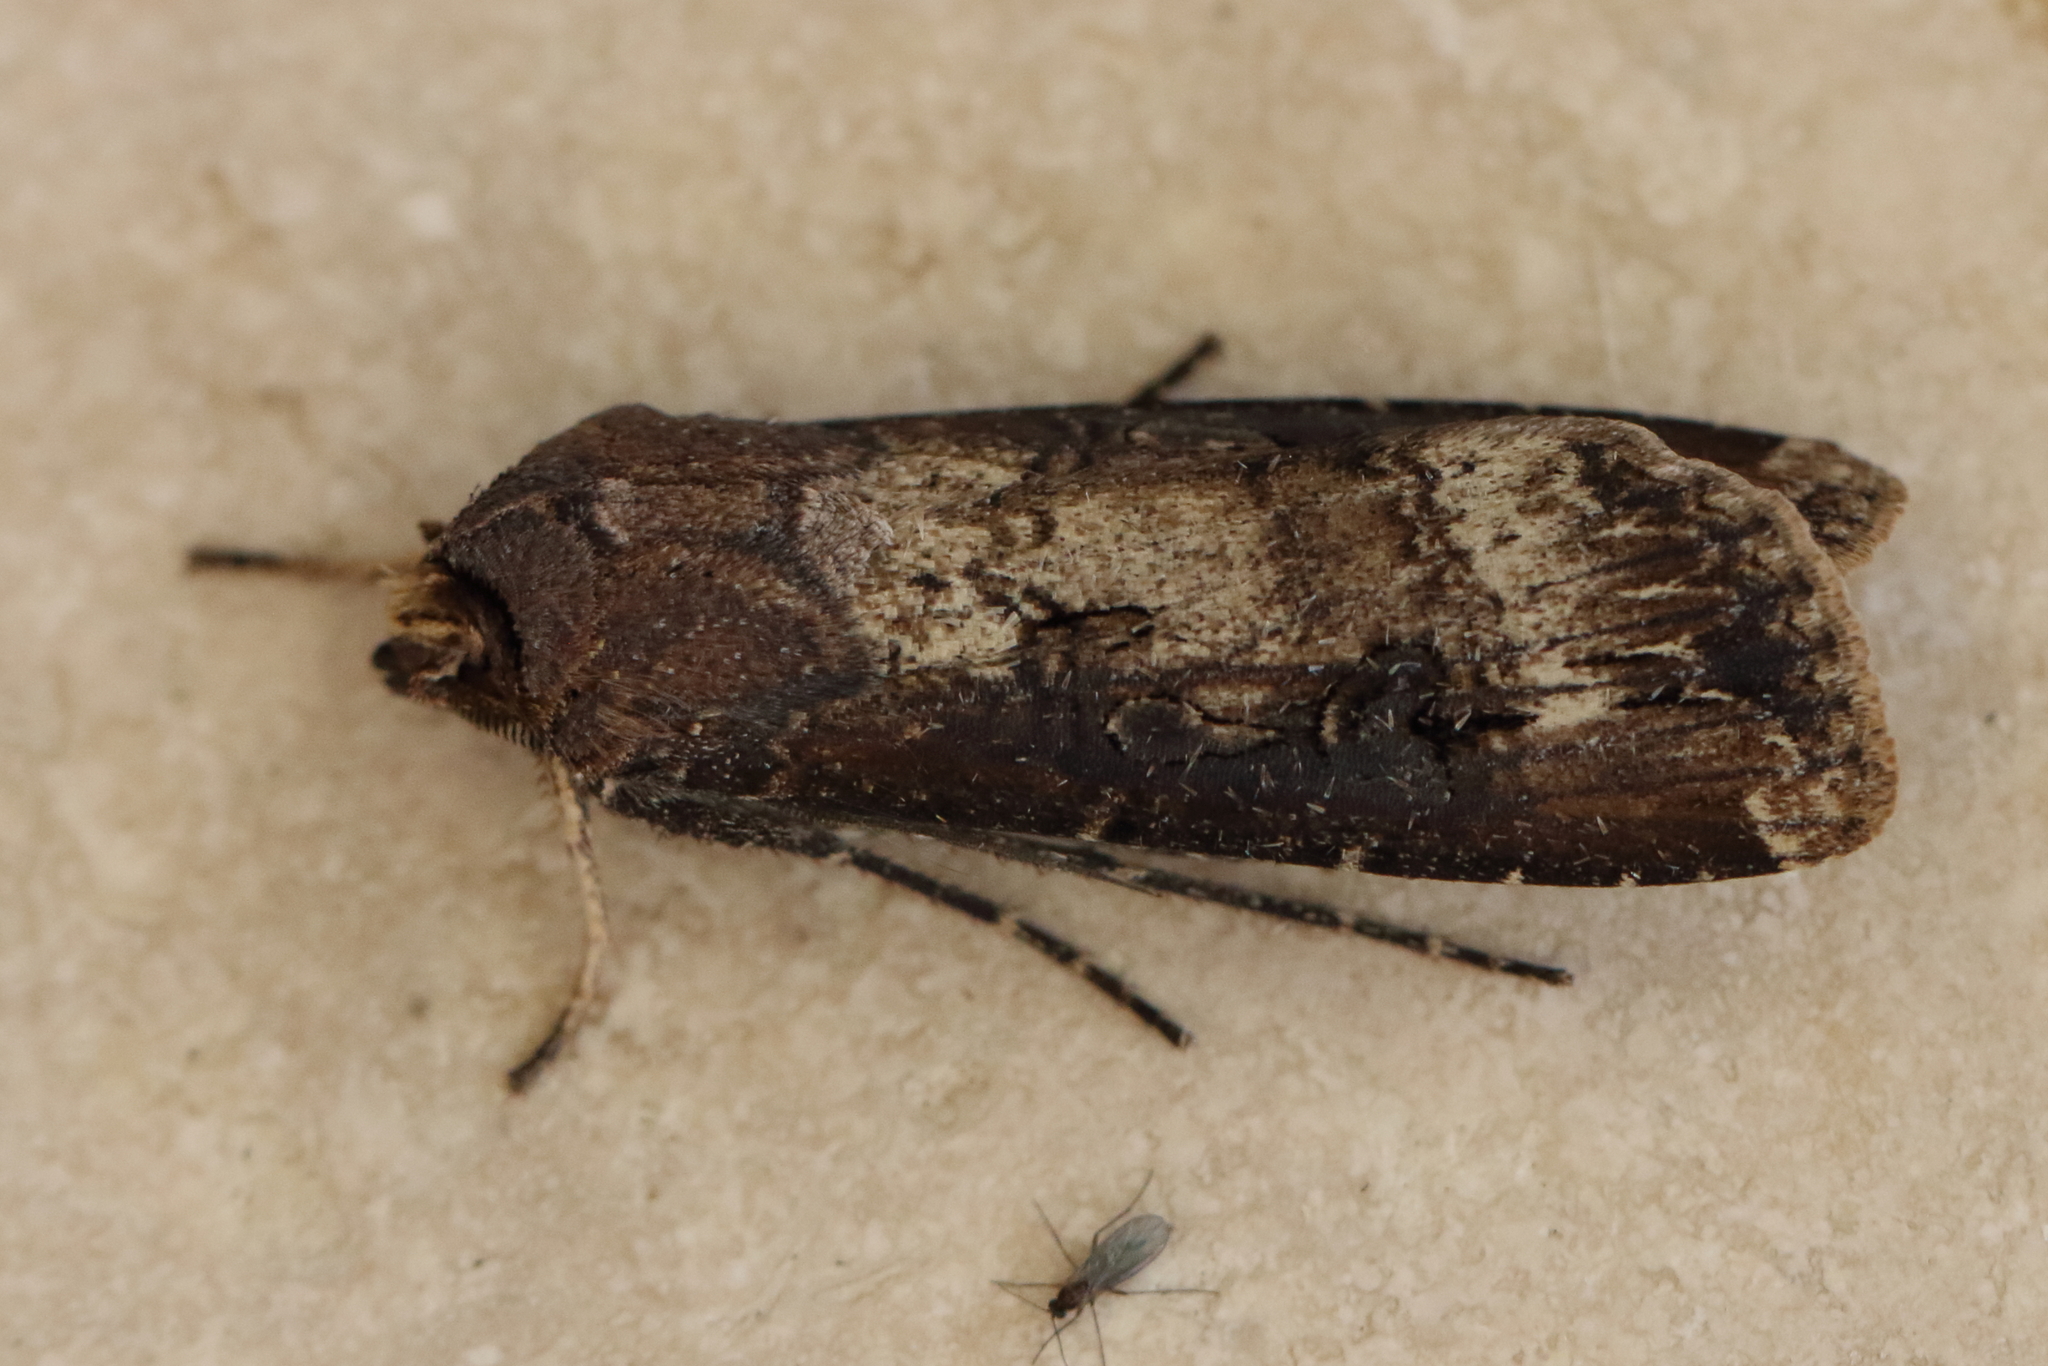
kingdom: Animalia
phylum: Arthropoda
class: Insecta
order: Lepidoptera
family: Noctuidae
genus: Agrotis
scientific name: Agrotis ipsilon
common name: Dark sword-grass
